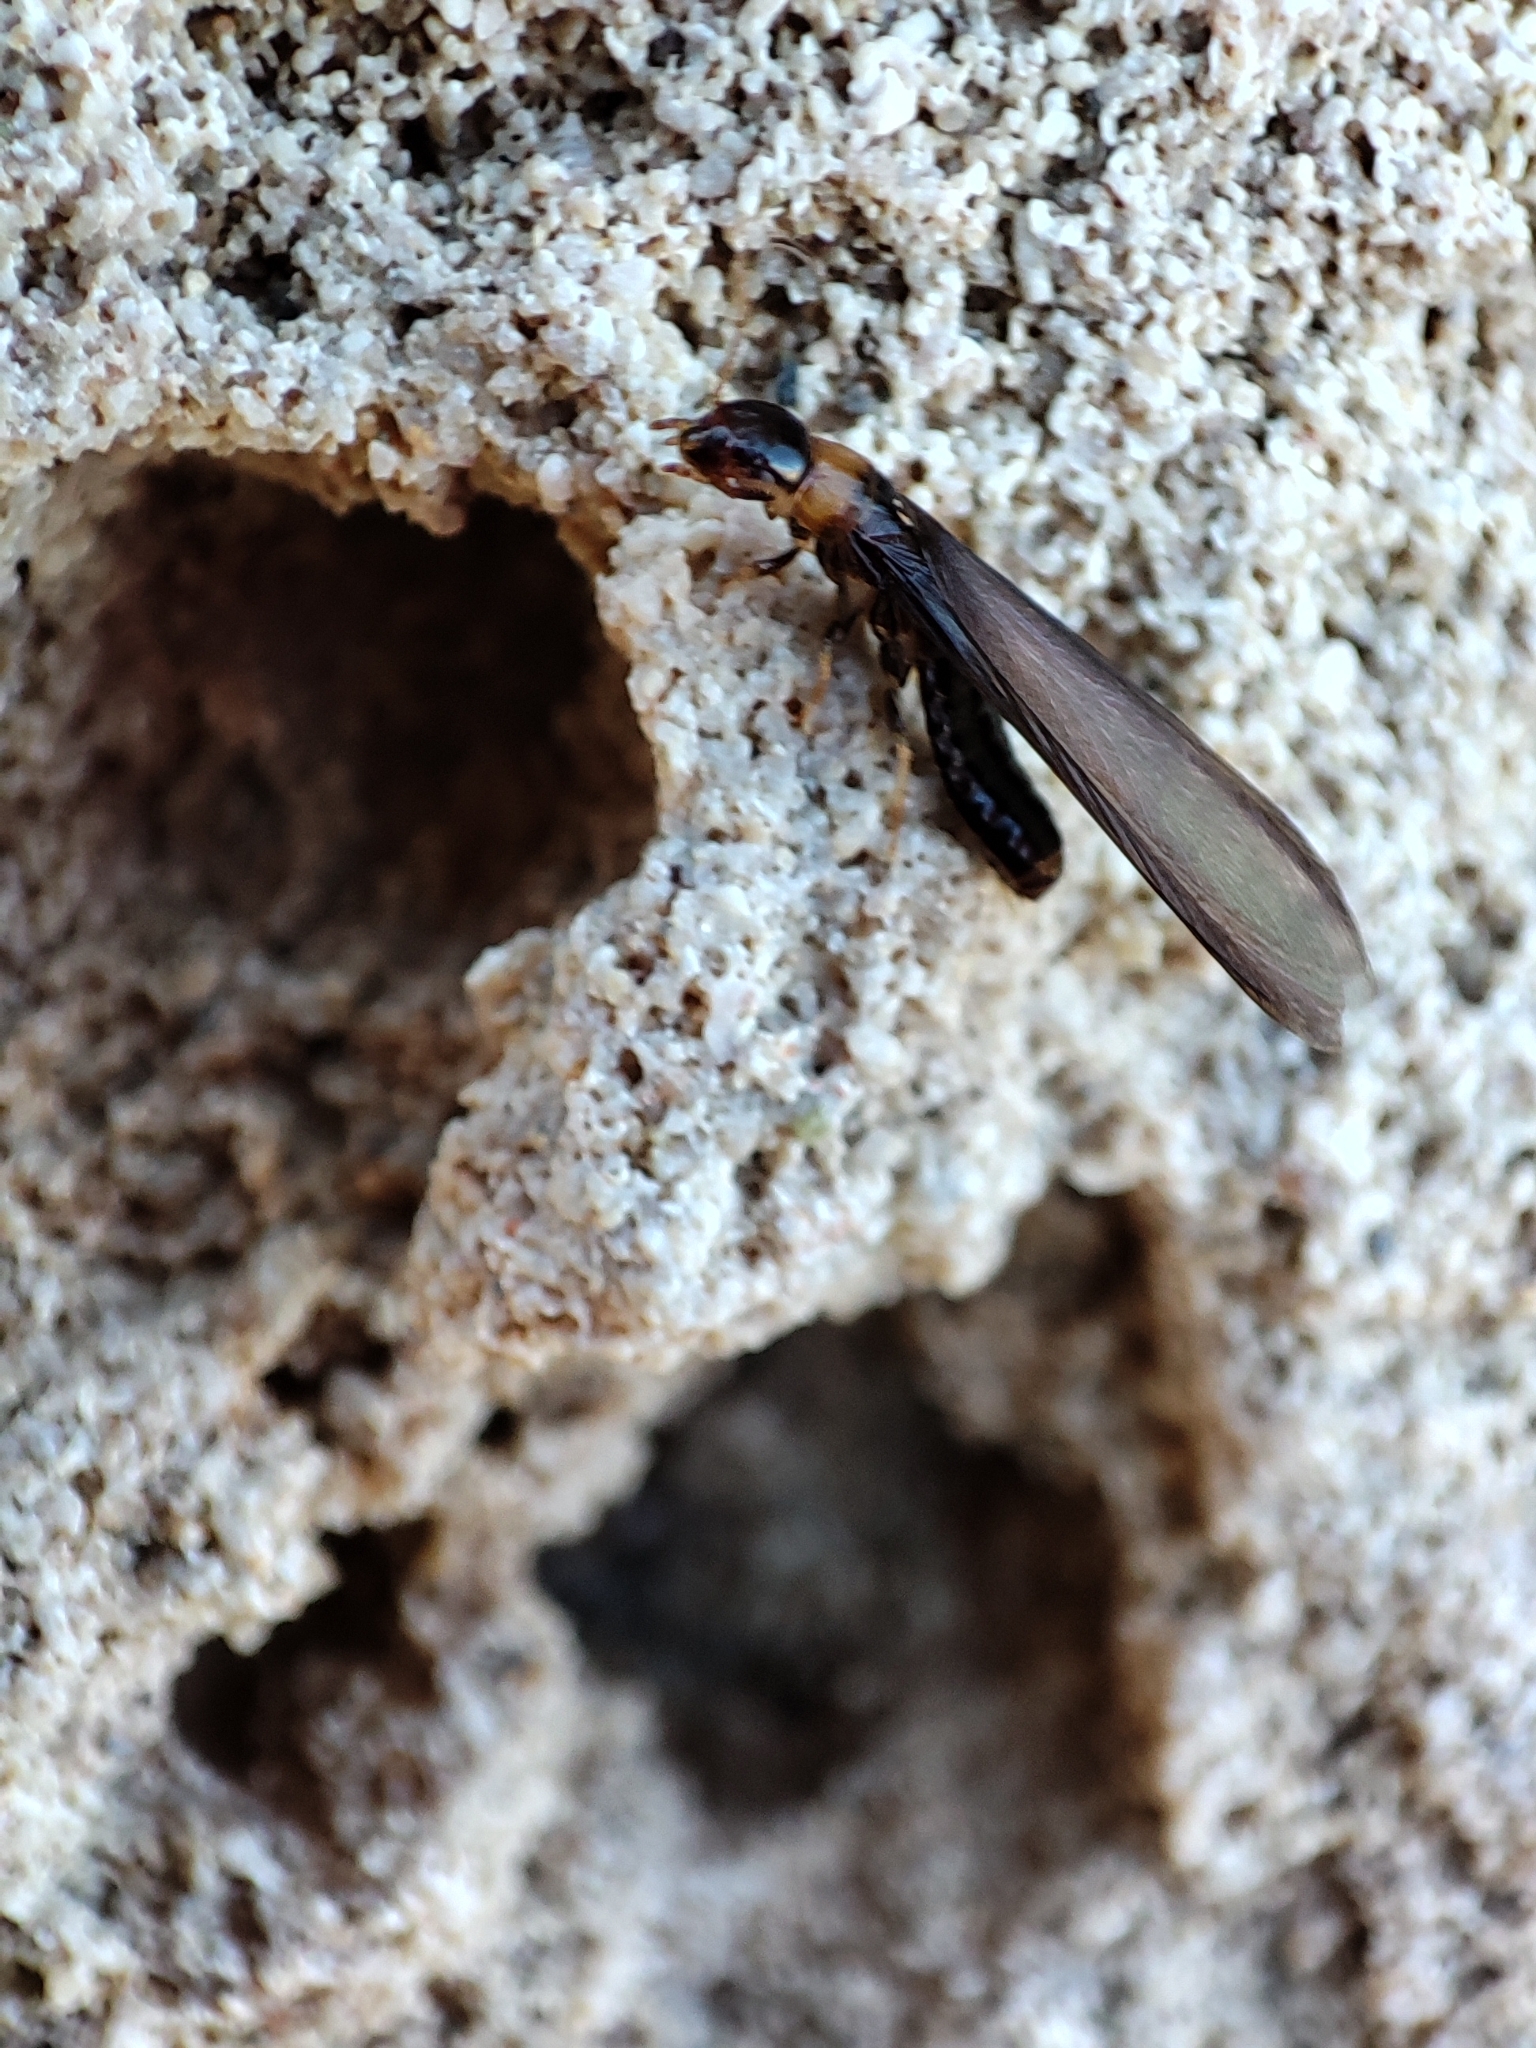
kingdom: Animalia
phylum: Arthropoda
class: Insecta
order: Blattodea
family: Kalotermitidae
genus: Kalotermes
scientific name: Kalotermes flavicollis
